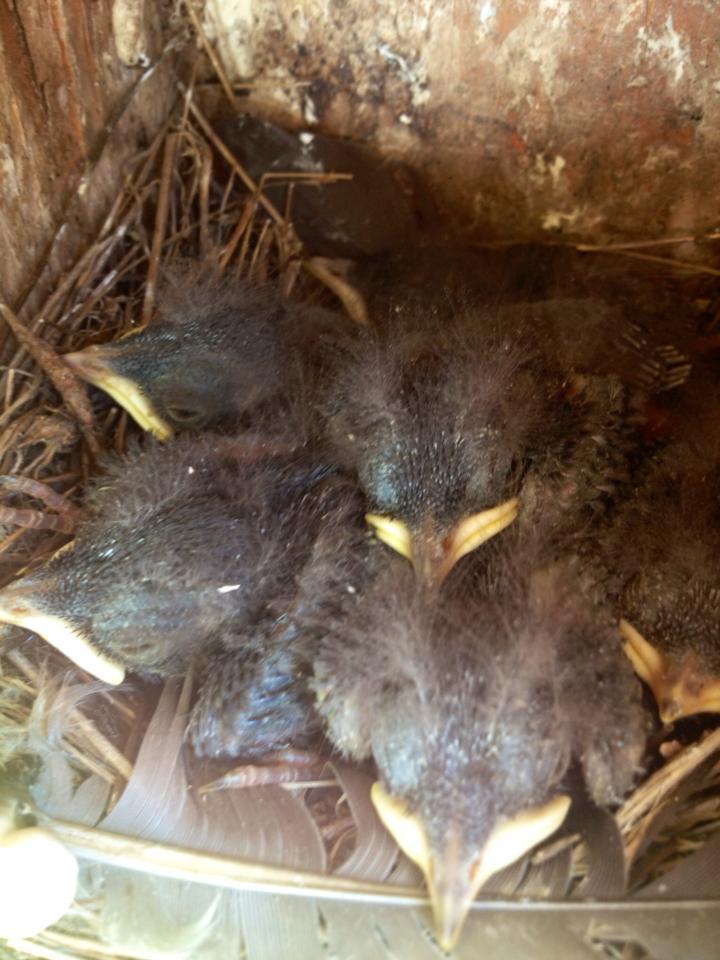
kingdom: Animalia
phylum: Chordata
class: Aves
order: Passeriformes
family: Hirundinidae
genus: Tachycineta
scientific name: Tachycineta thalassina
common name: Violet-green swallow
